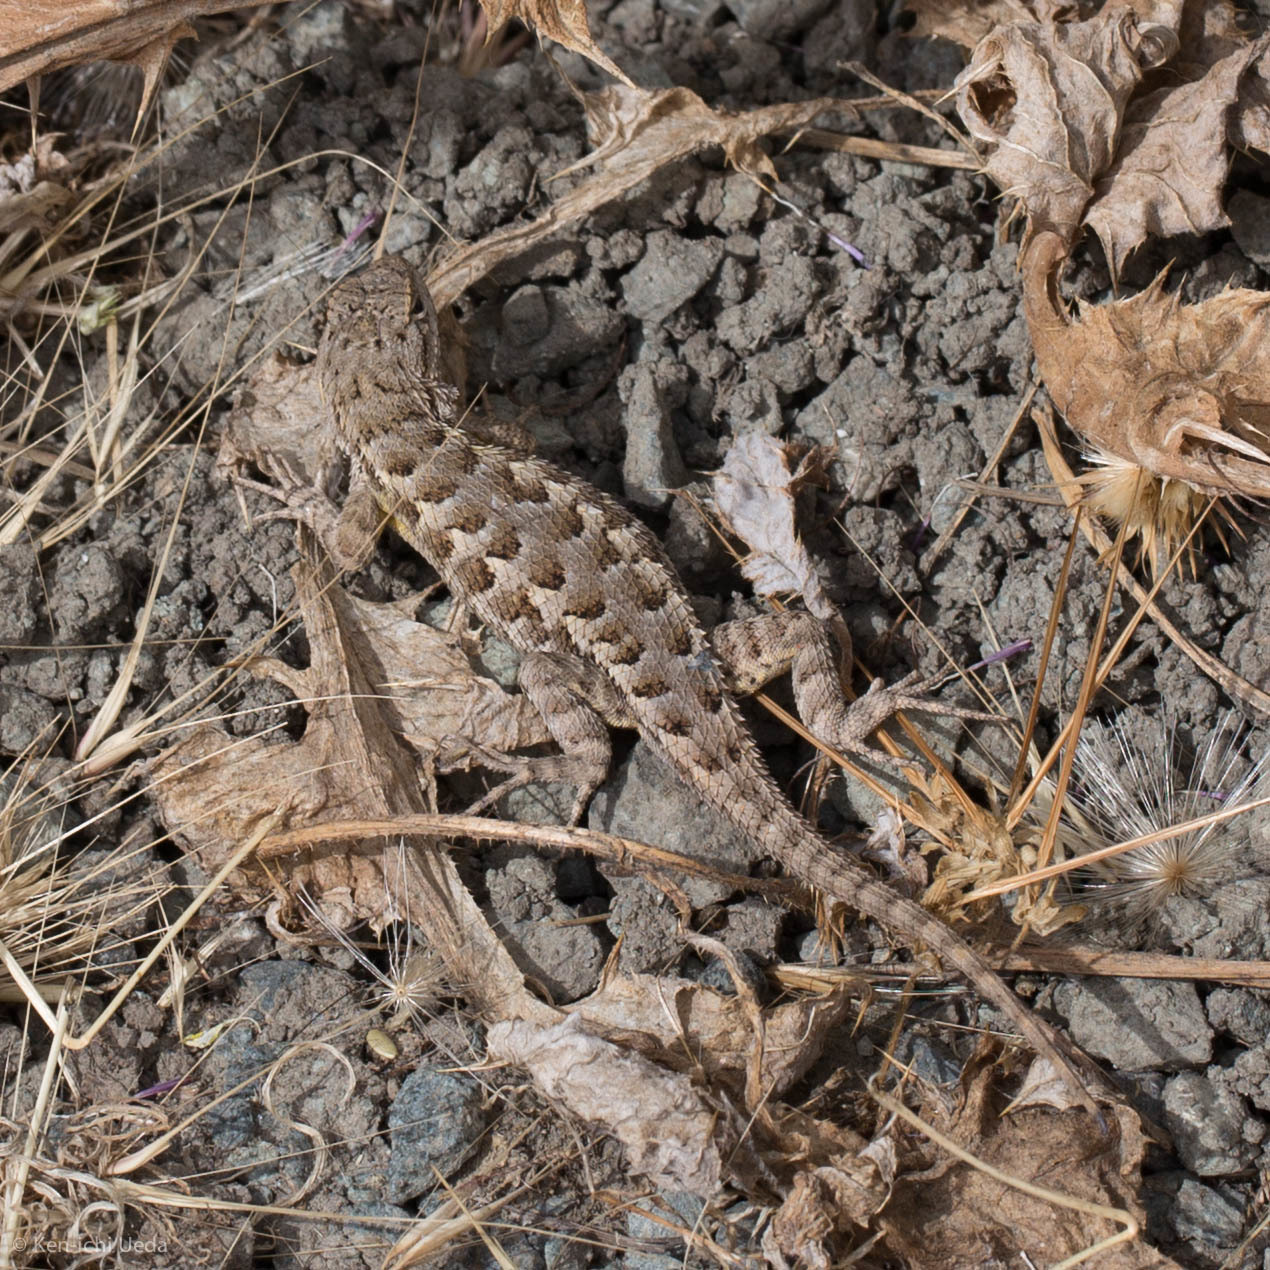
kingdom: Animalia
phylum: Chordata
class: Squamata
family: Phrynosomatidae
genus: Sceloporus
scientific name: Sceloporus occidentalis
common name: Western fence lizard
